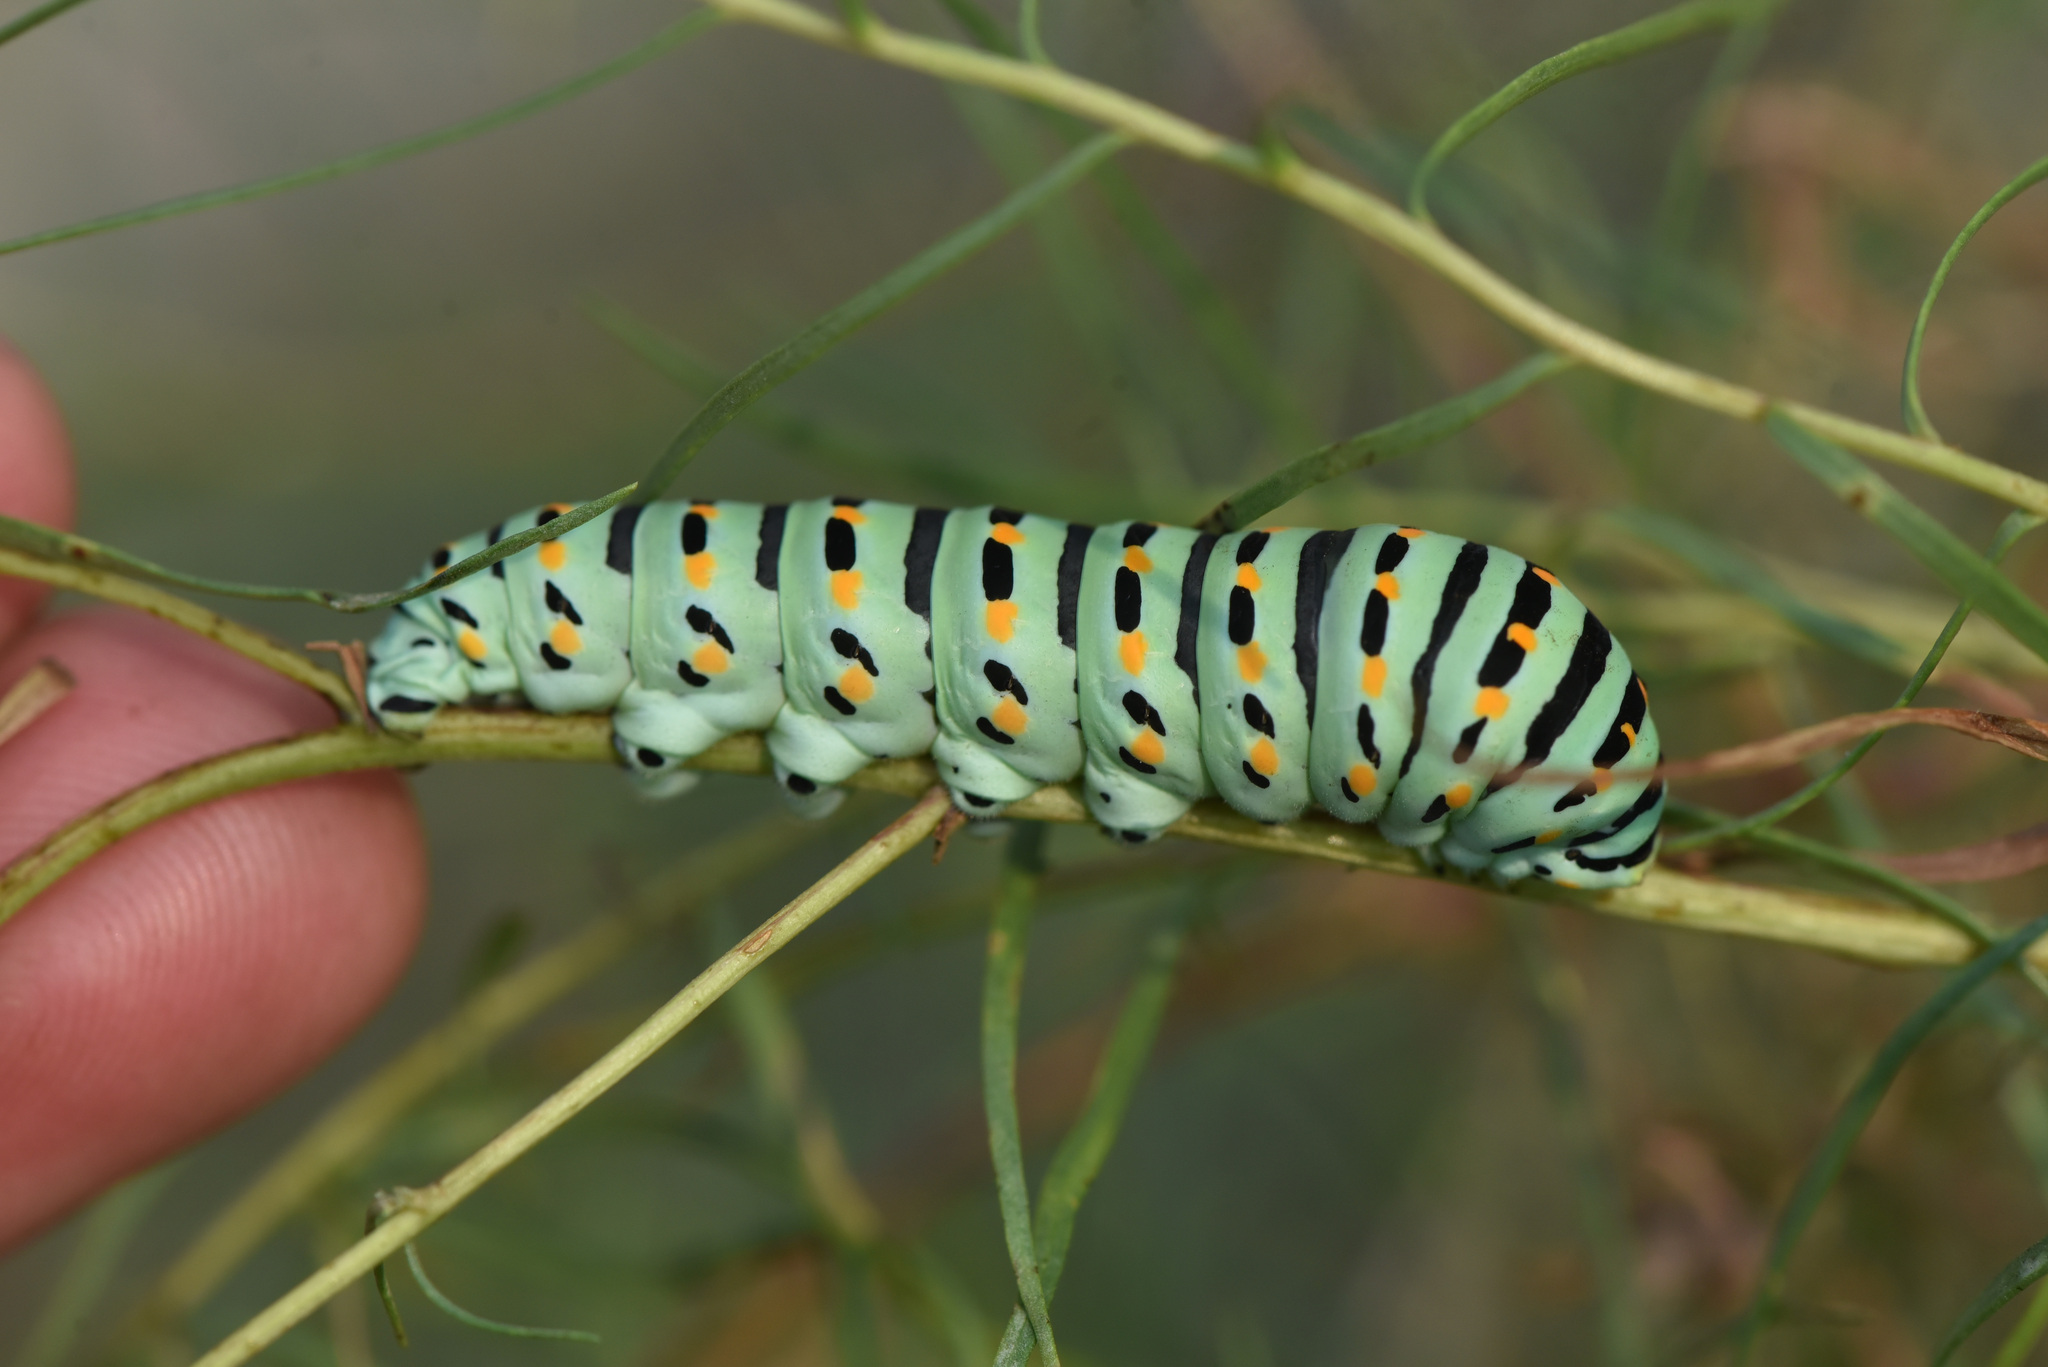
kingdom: Animalia
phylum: Arthropoda
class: Insecta
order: Lepidoptera
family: Papilionidae
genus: Papilio
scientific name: Papilio machaon
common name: Swallowtail
